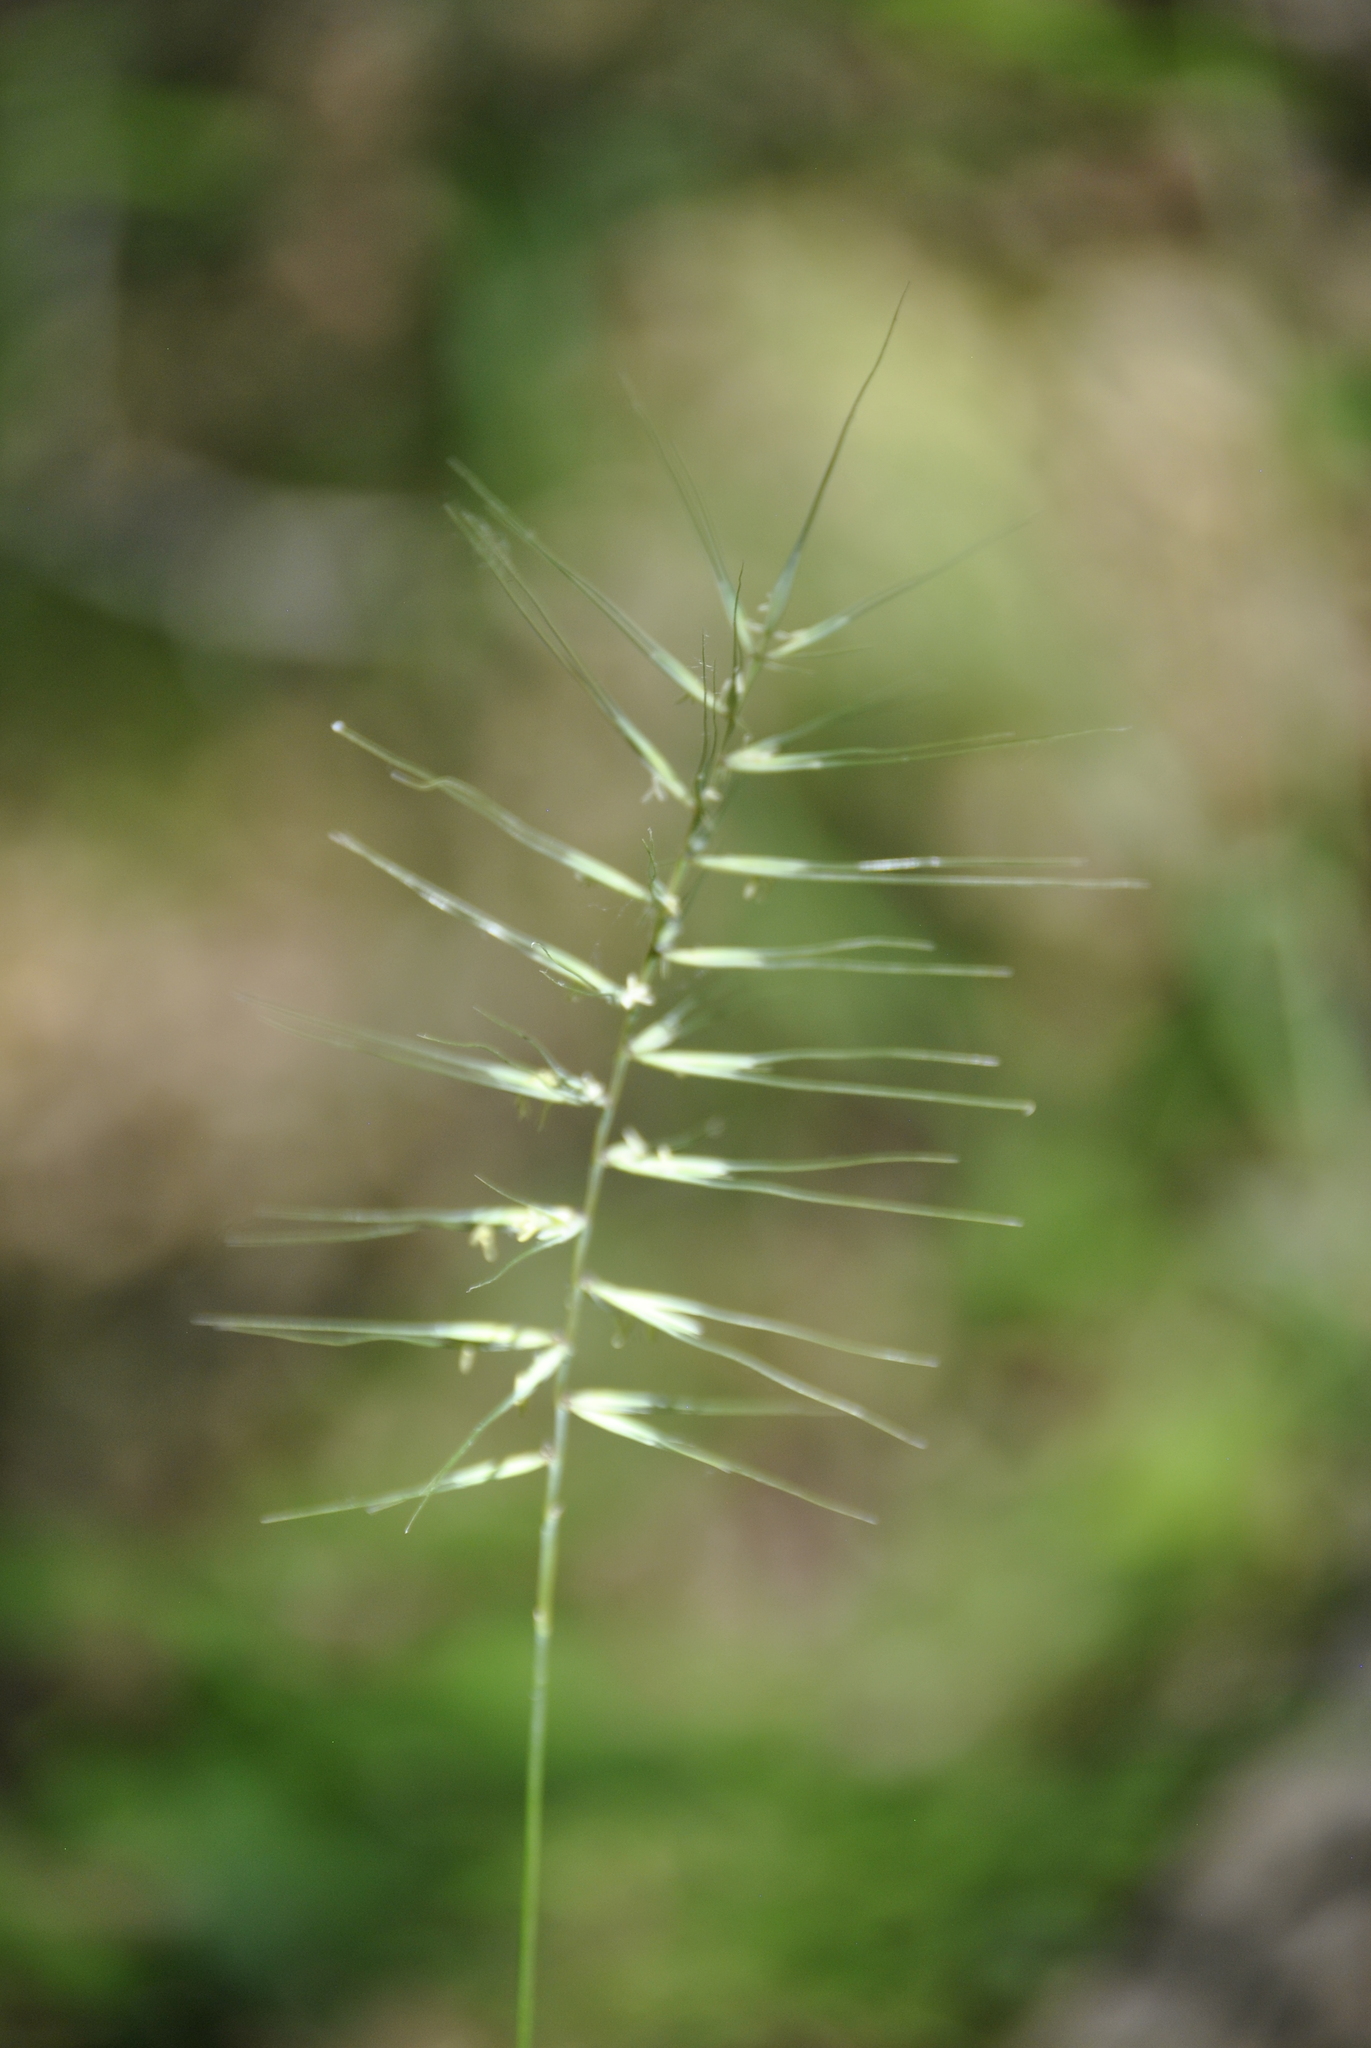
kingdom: Plantae
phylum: Tracheophyta
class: Liliopsida
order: Poales
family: Poaceae
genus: Elymus
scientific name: Elymus hystrix
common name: Bottlebrush grass
